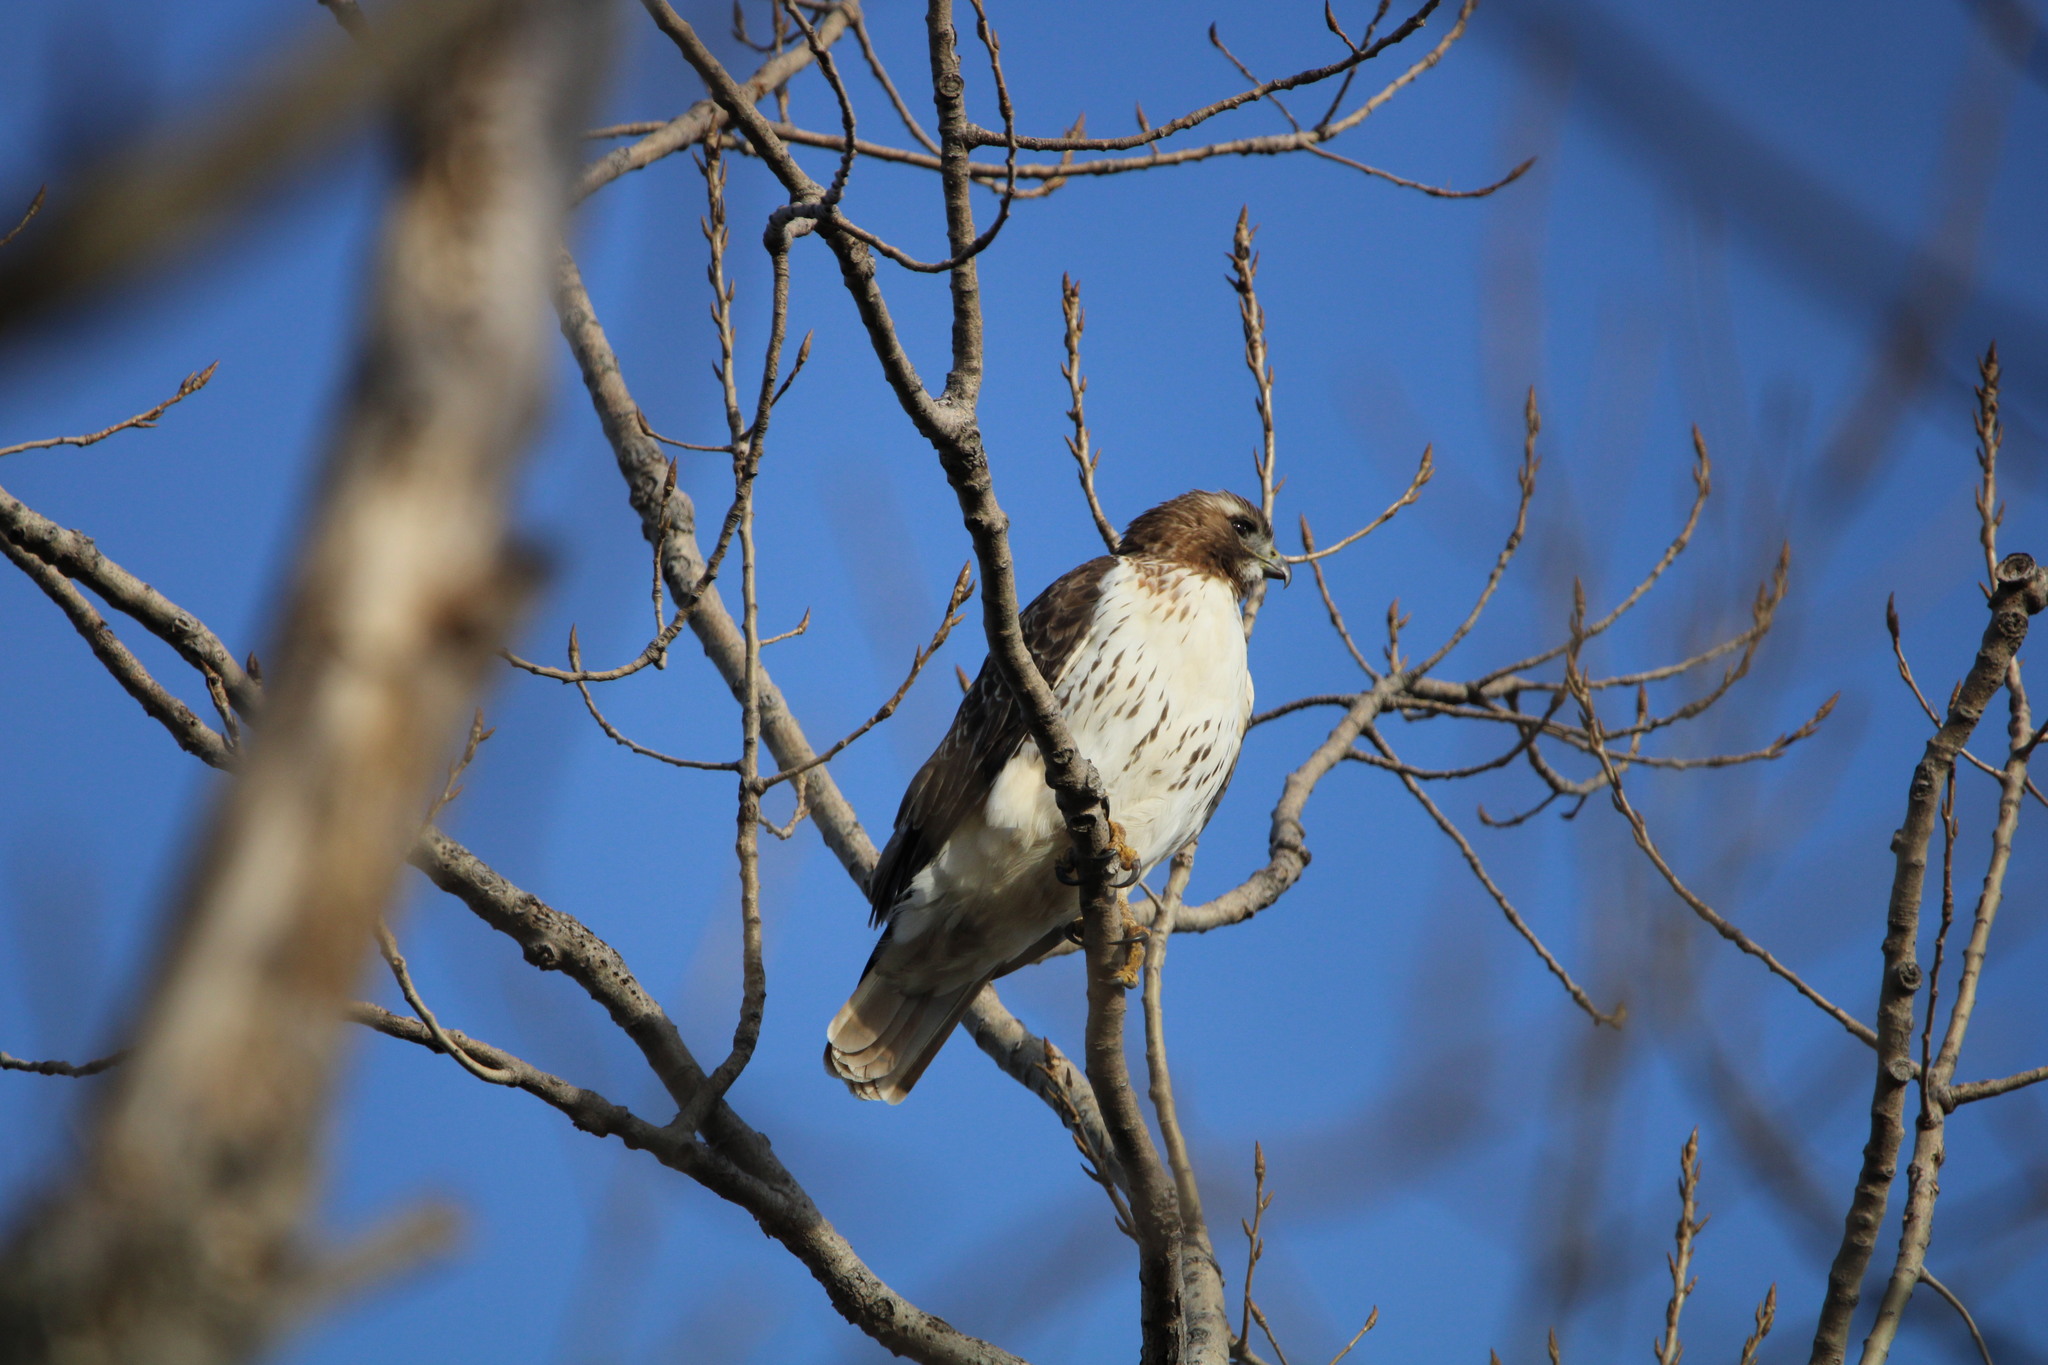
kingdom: Animalia
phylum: Chordata
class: Aves
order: Accipitriformes
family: Accipitridae
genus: Buteo
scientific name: Buteo jamaicensis
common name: Red-tailed hawk
